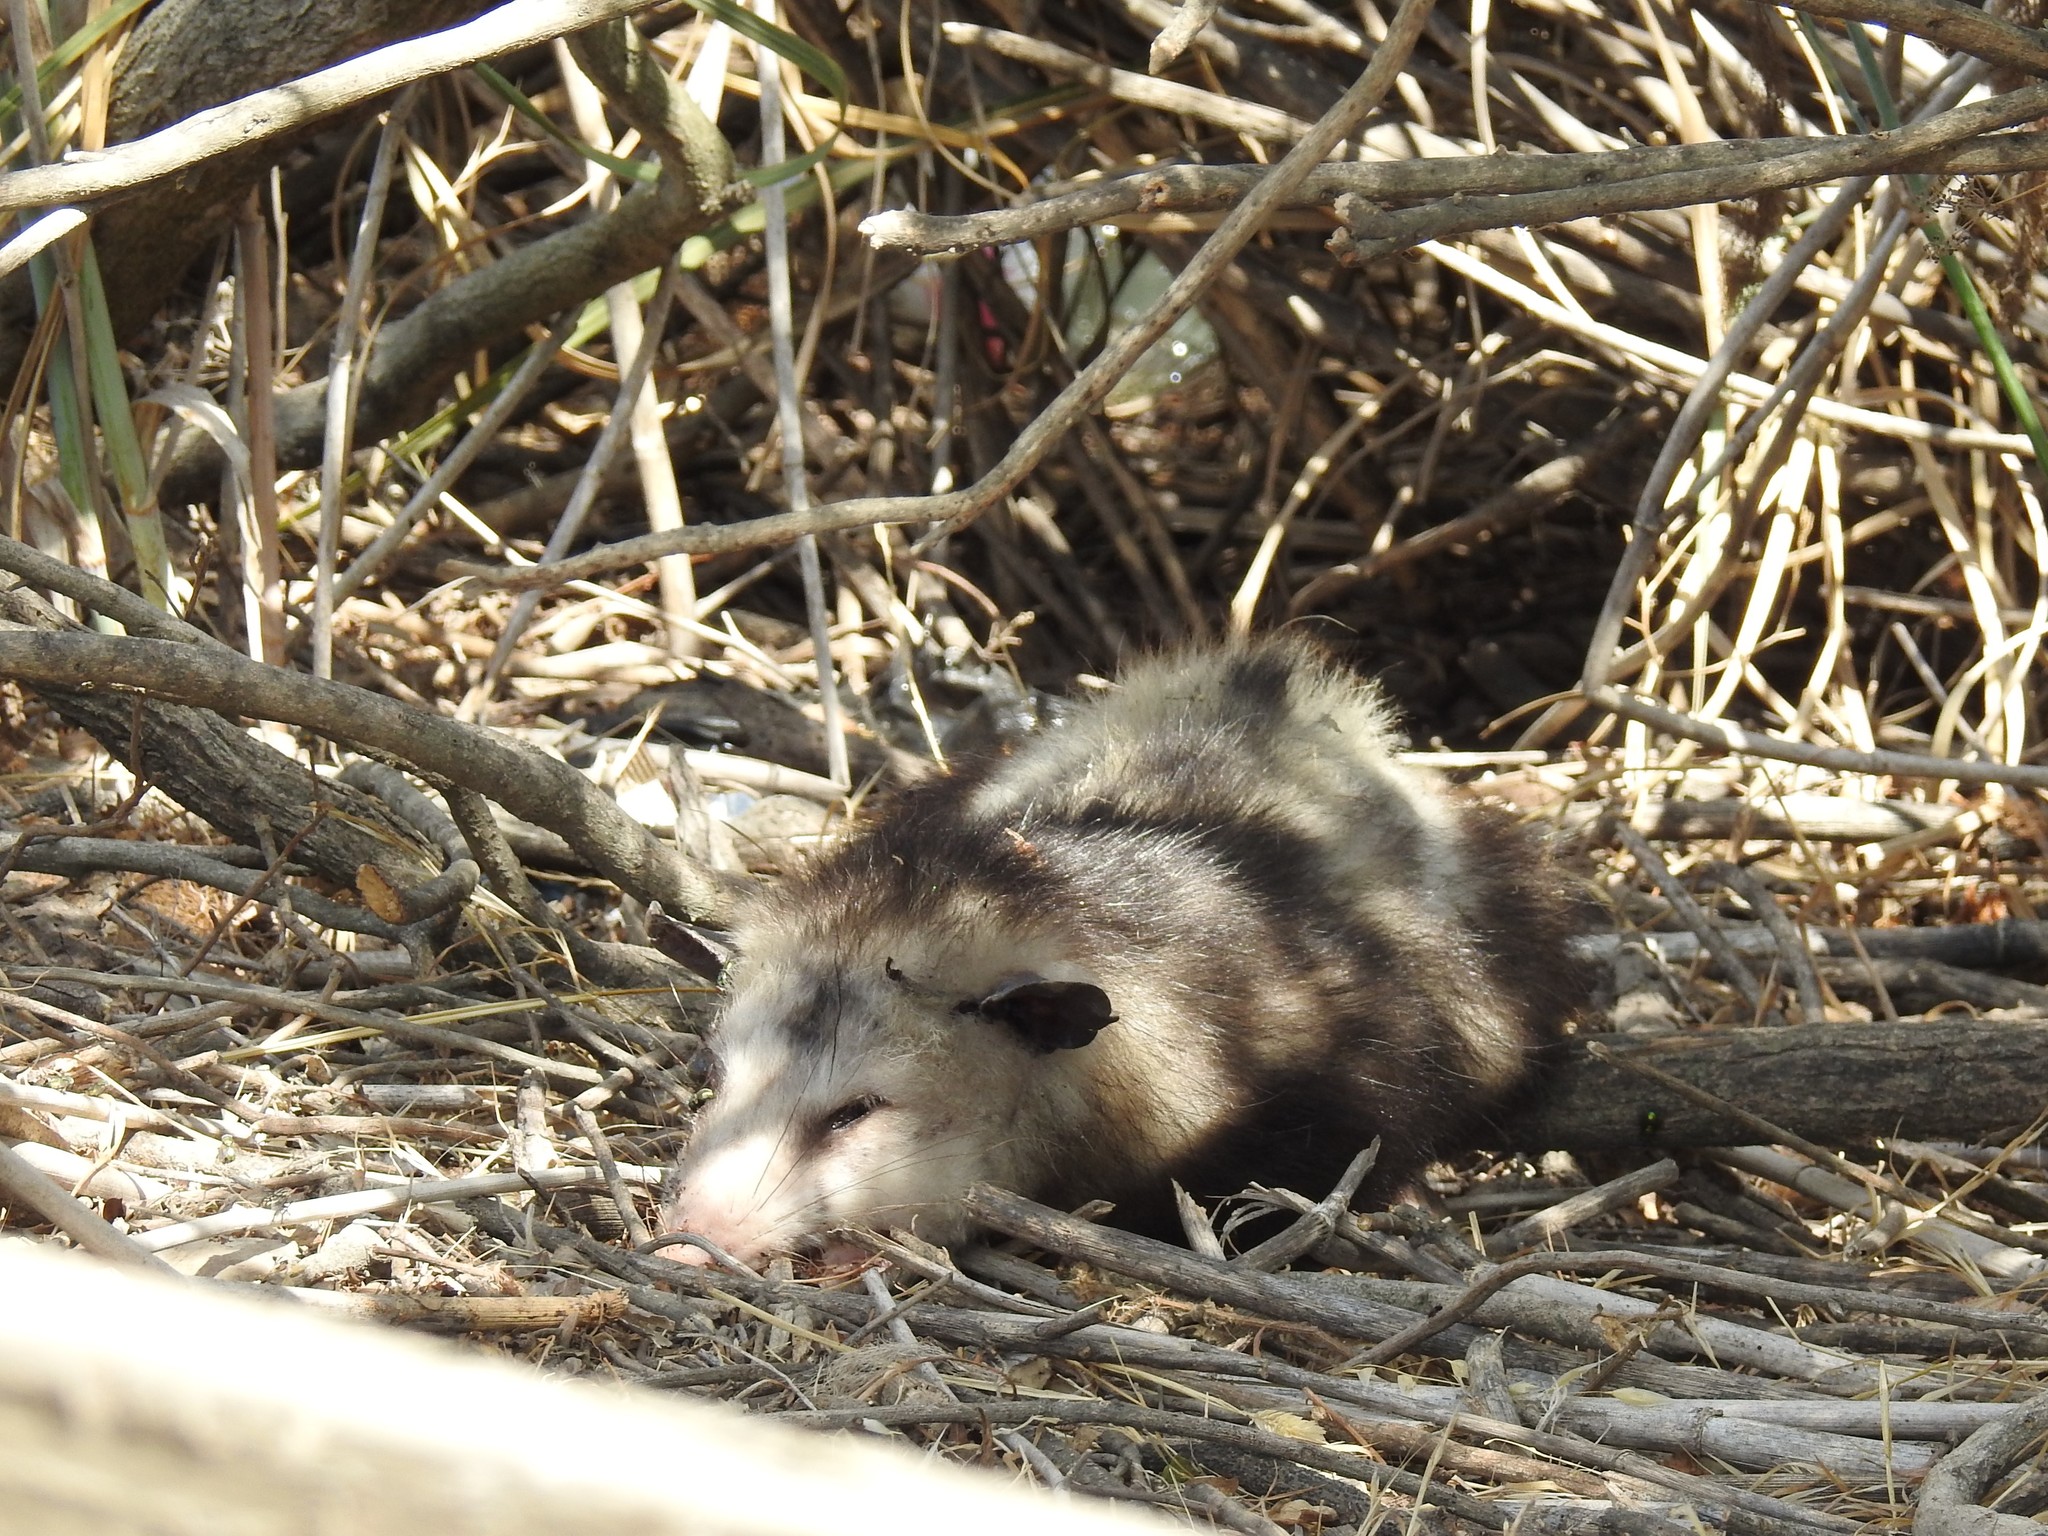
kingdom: Animalia
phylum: Chordata
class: Mammalia
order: Didelphimorphia
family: Didelphidae
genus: Didelphis
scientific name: Didelphis virginiana
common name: Virginia opossum
